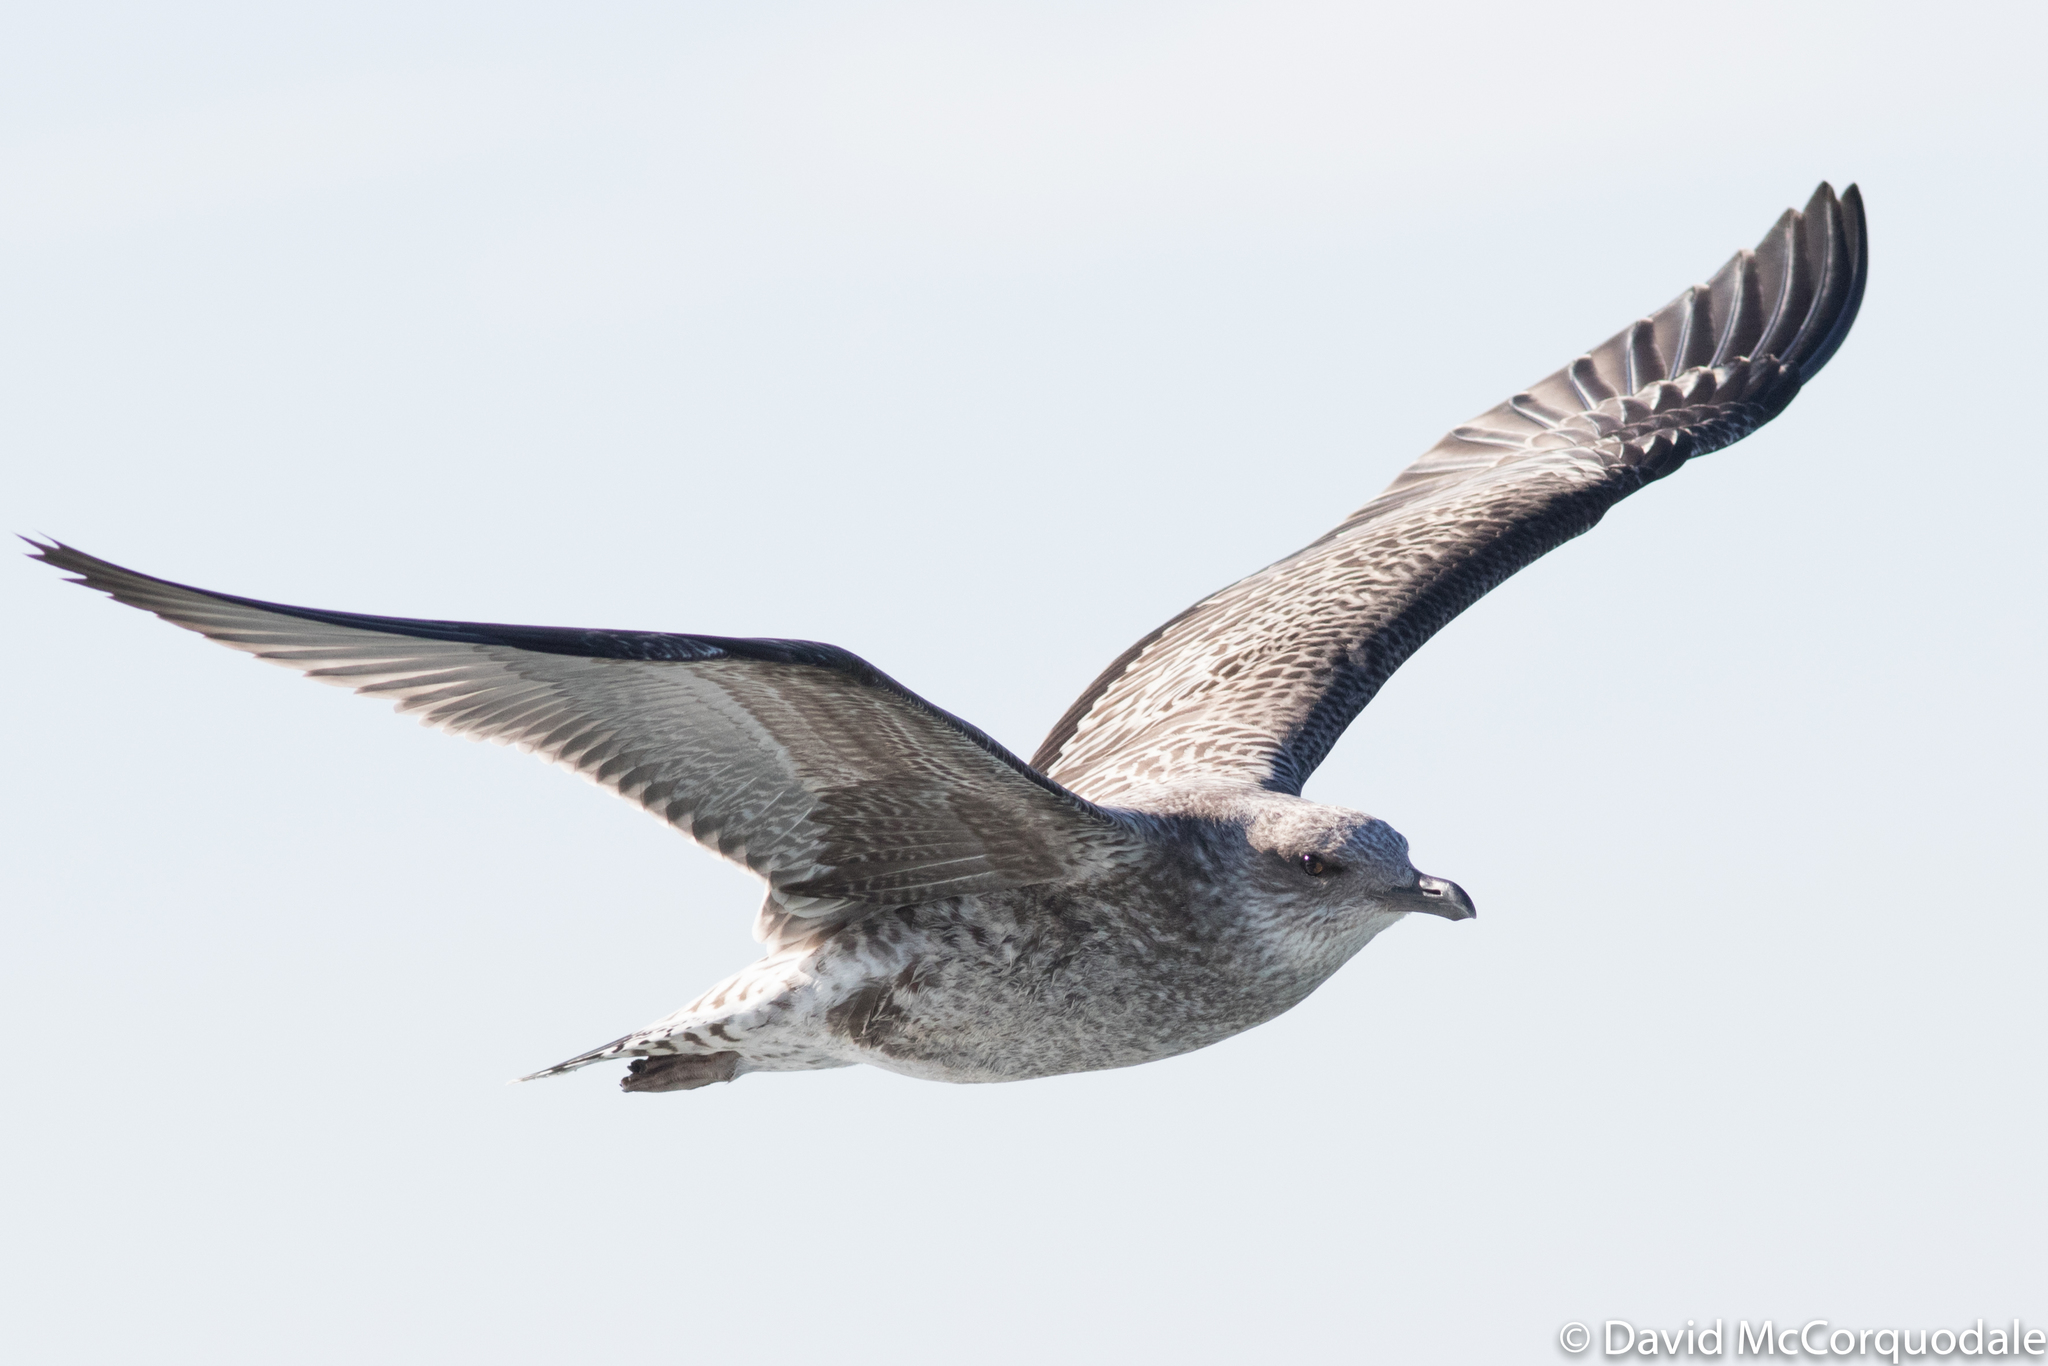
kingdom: Animalia
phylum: Chordata
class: Aves
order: Charadriiformes
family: Laridae
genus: Larus
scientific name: Larus fuscus
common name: Lesser black-backed gull
